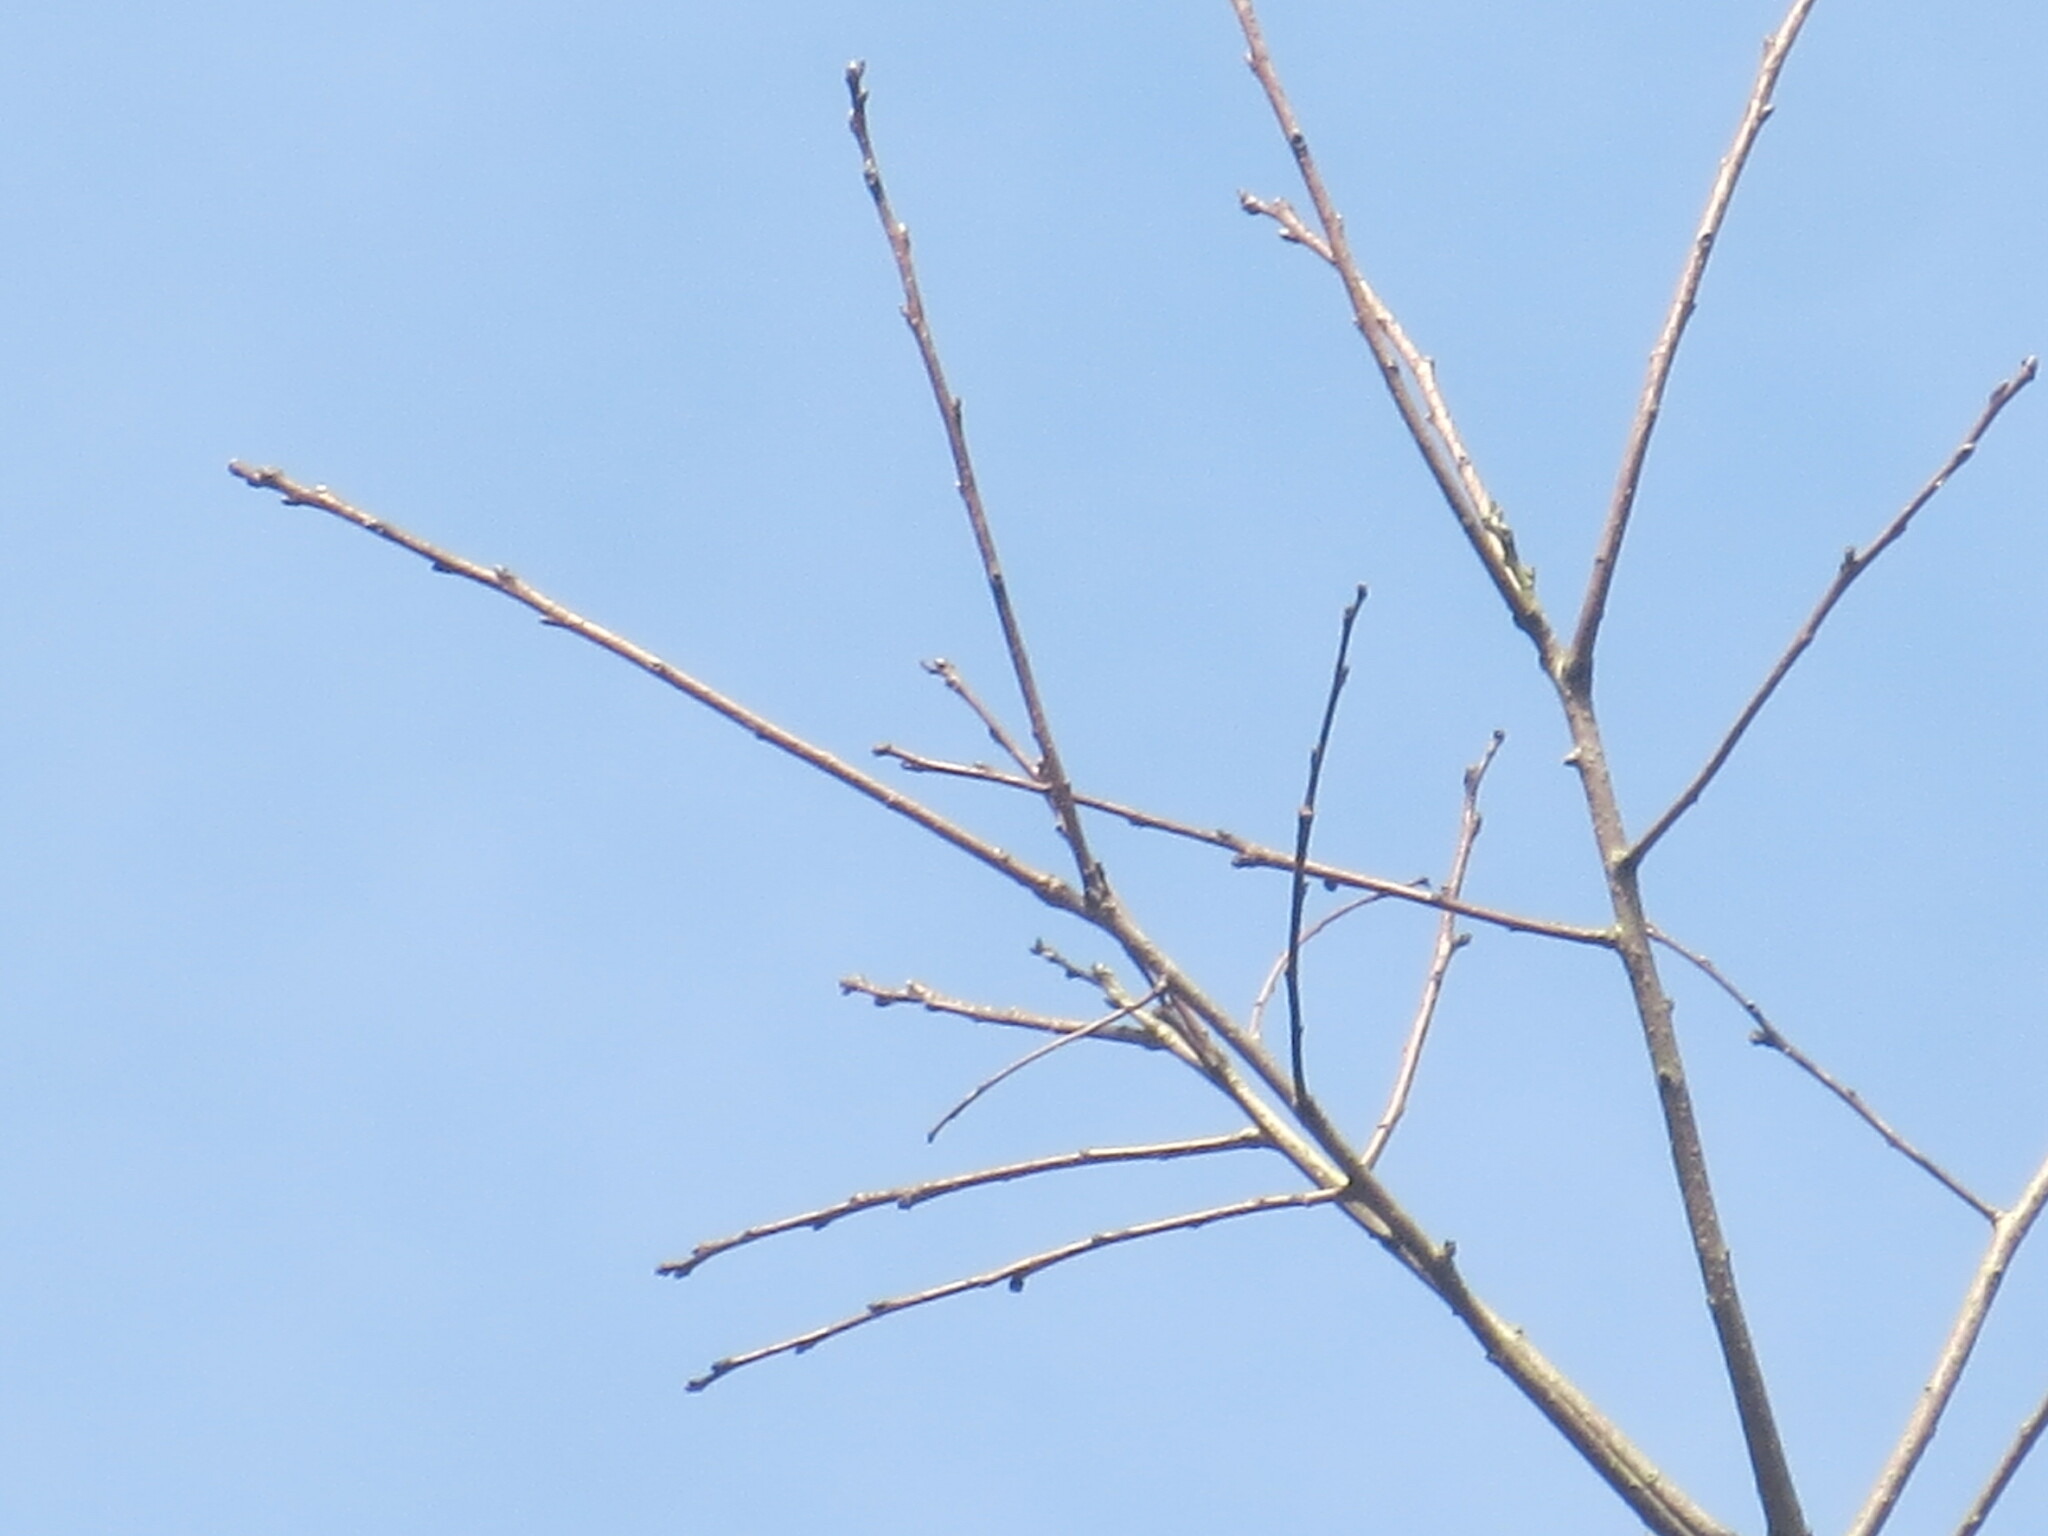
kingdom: Plantae
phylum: Tracheophyta
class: Magnoliopsida
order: Ericales
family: Ebenaceae
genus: Diospyros
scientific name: Diospyros virginiana
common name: Persimmon
